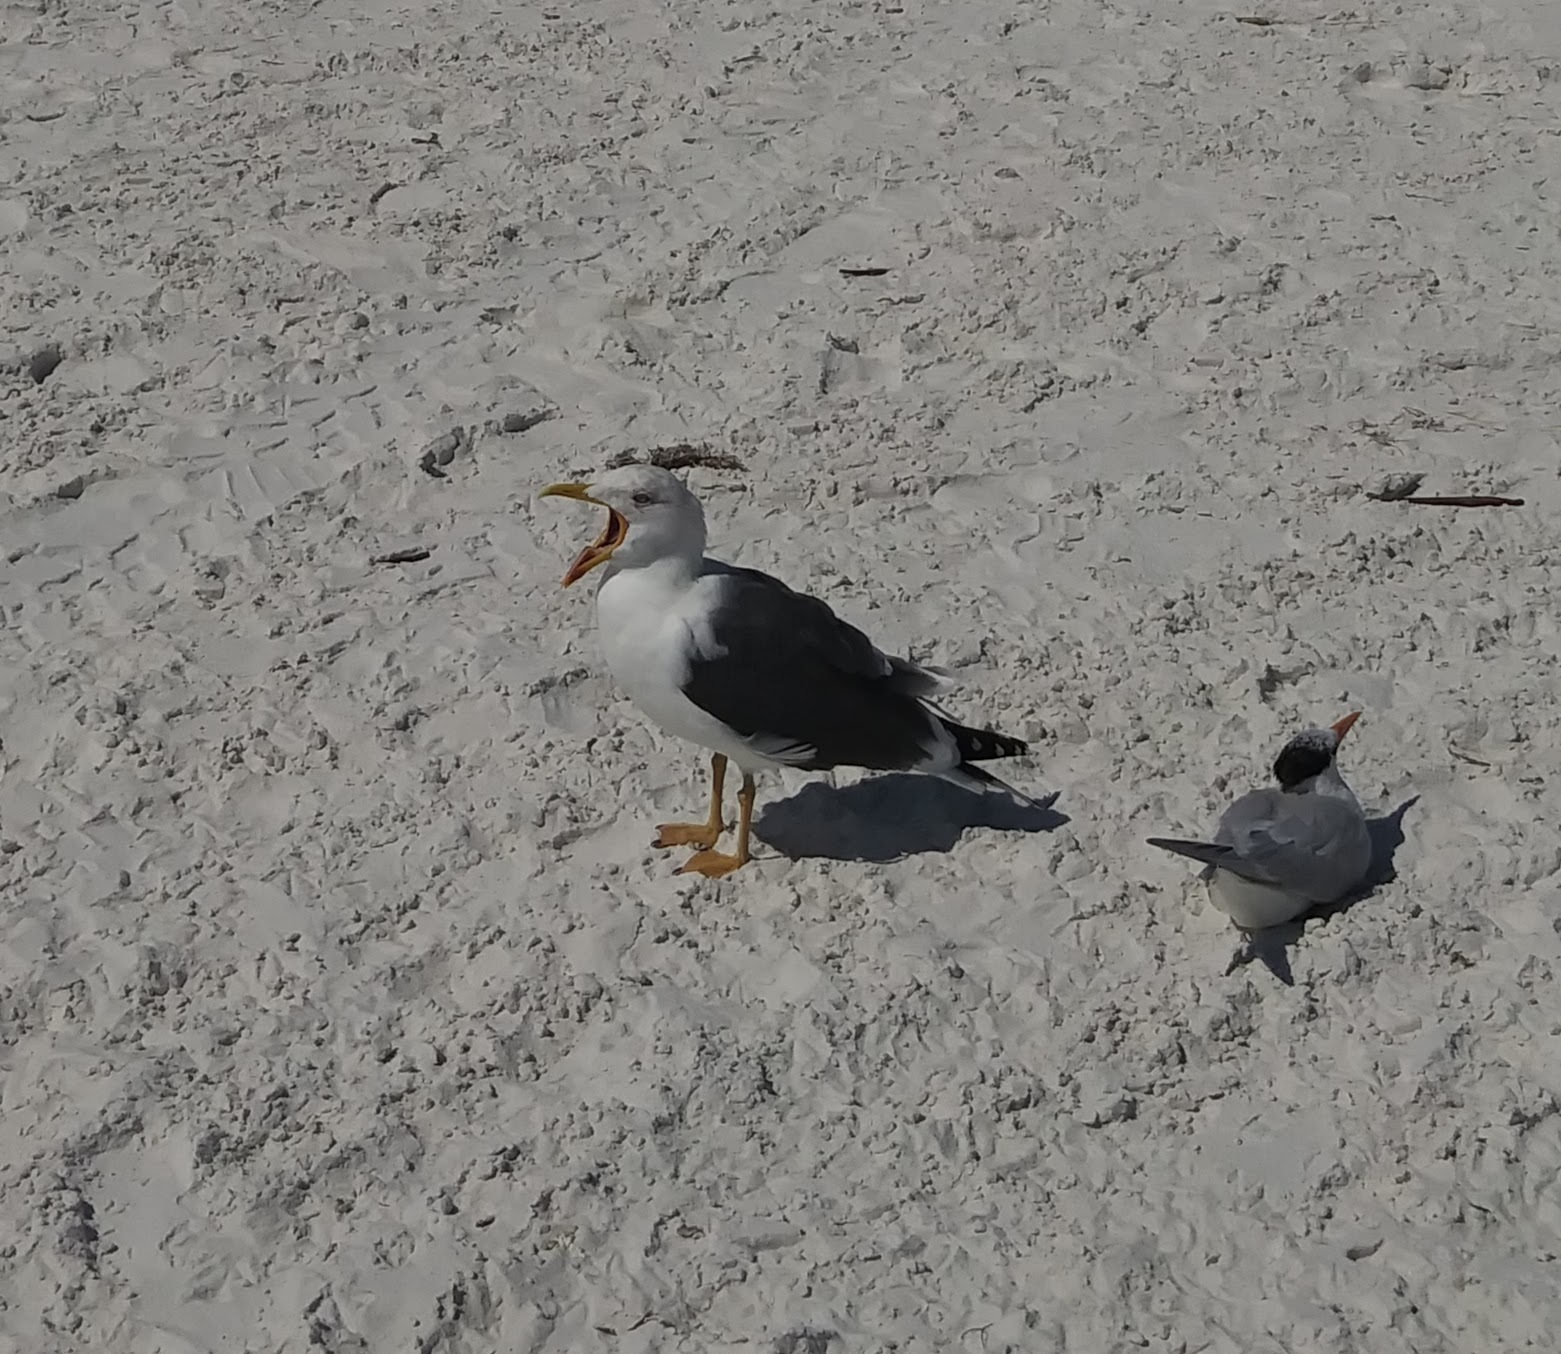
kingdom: Animalia
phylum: Chordata
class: Aves
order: Charadriiformes
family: Laridae
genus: Larus
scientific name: Larus fuscus
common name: Lesser black-backed gull
